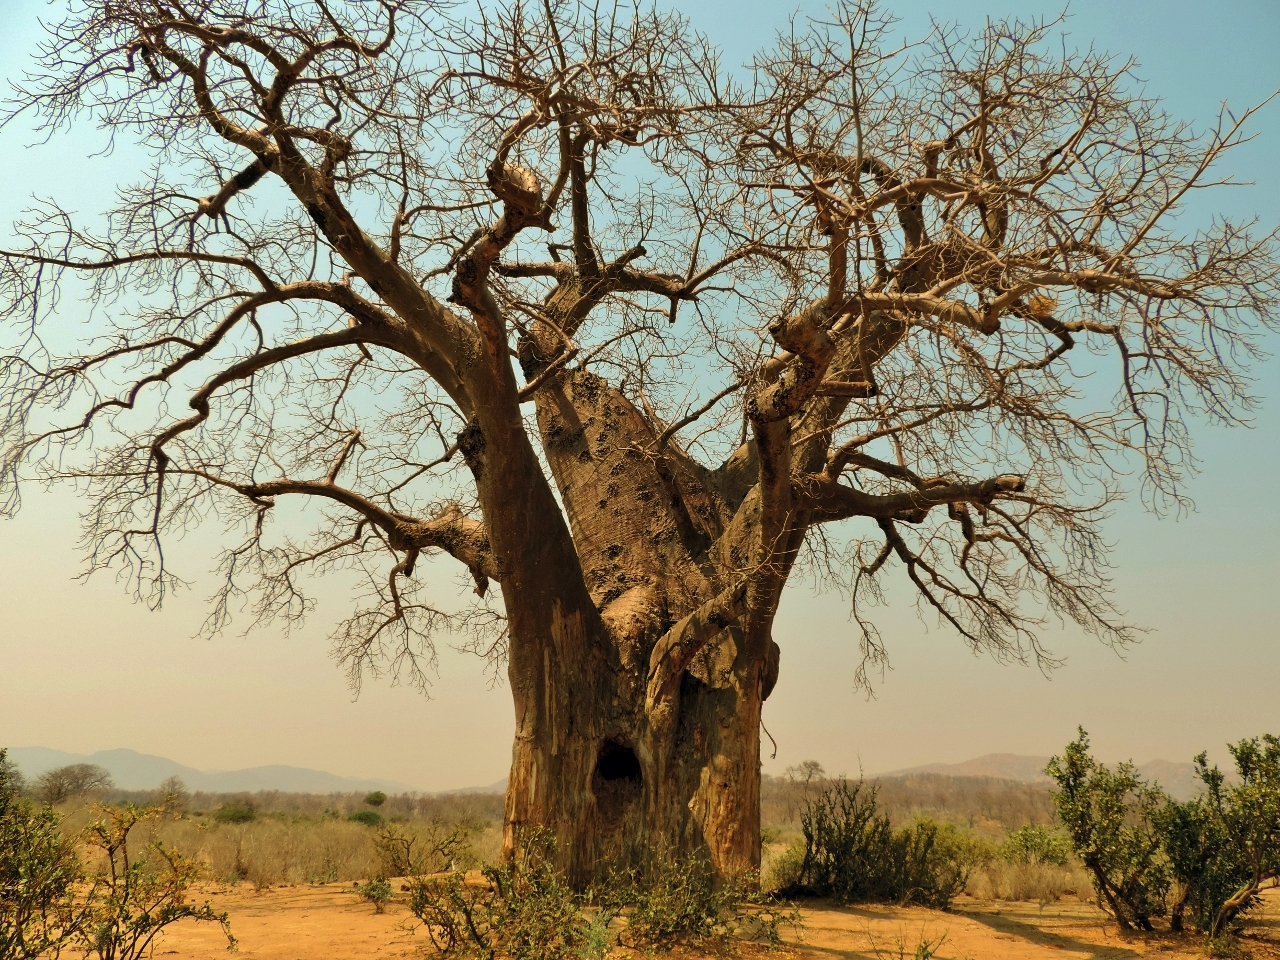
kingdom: Plantae
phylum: Tracheophyta
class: Magnoliopsida
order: Malvales
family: Malvaceae
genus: Adansonia
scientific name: Adansonia digitata
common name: Dead-rat-tree
